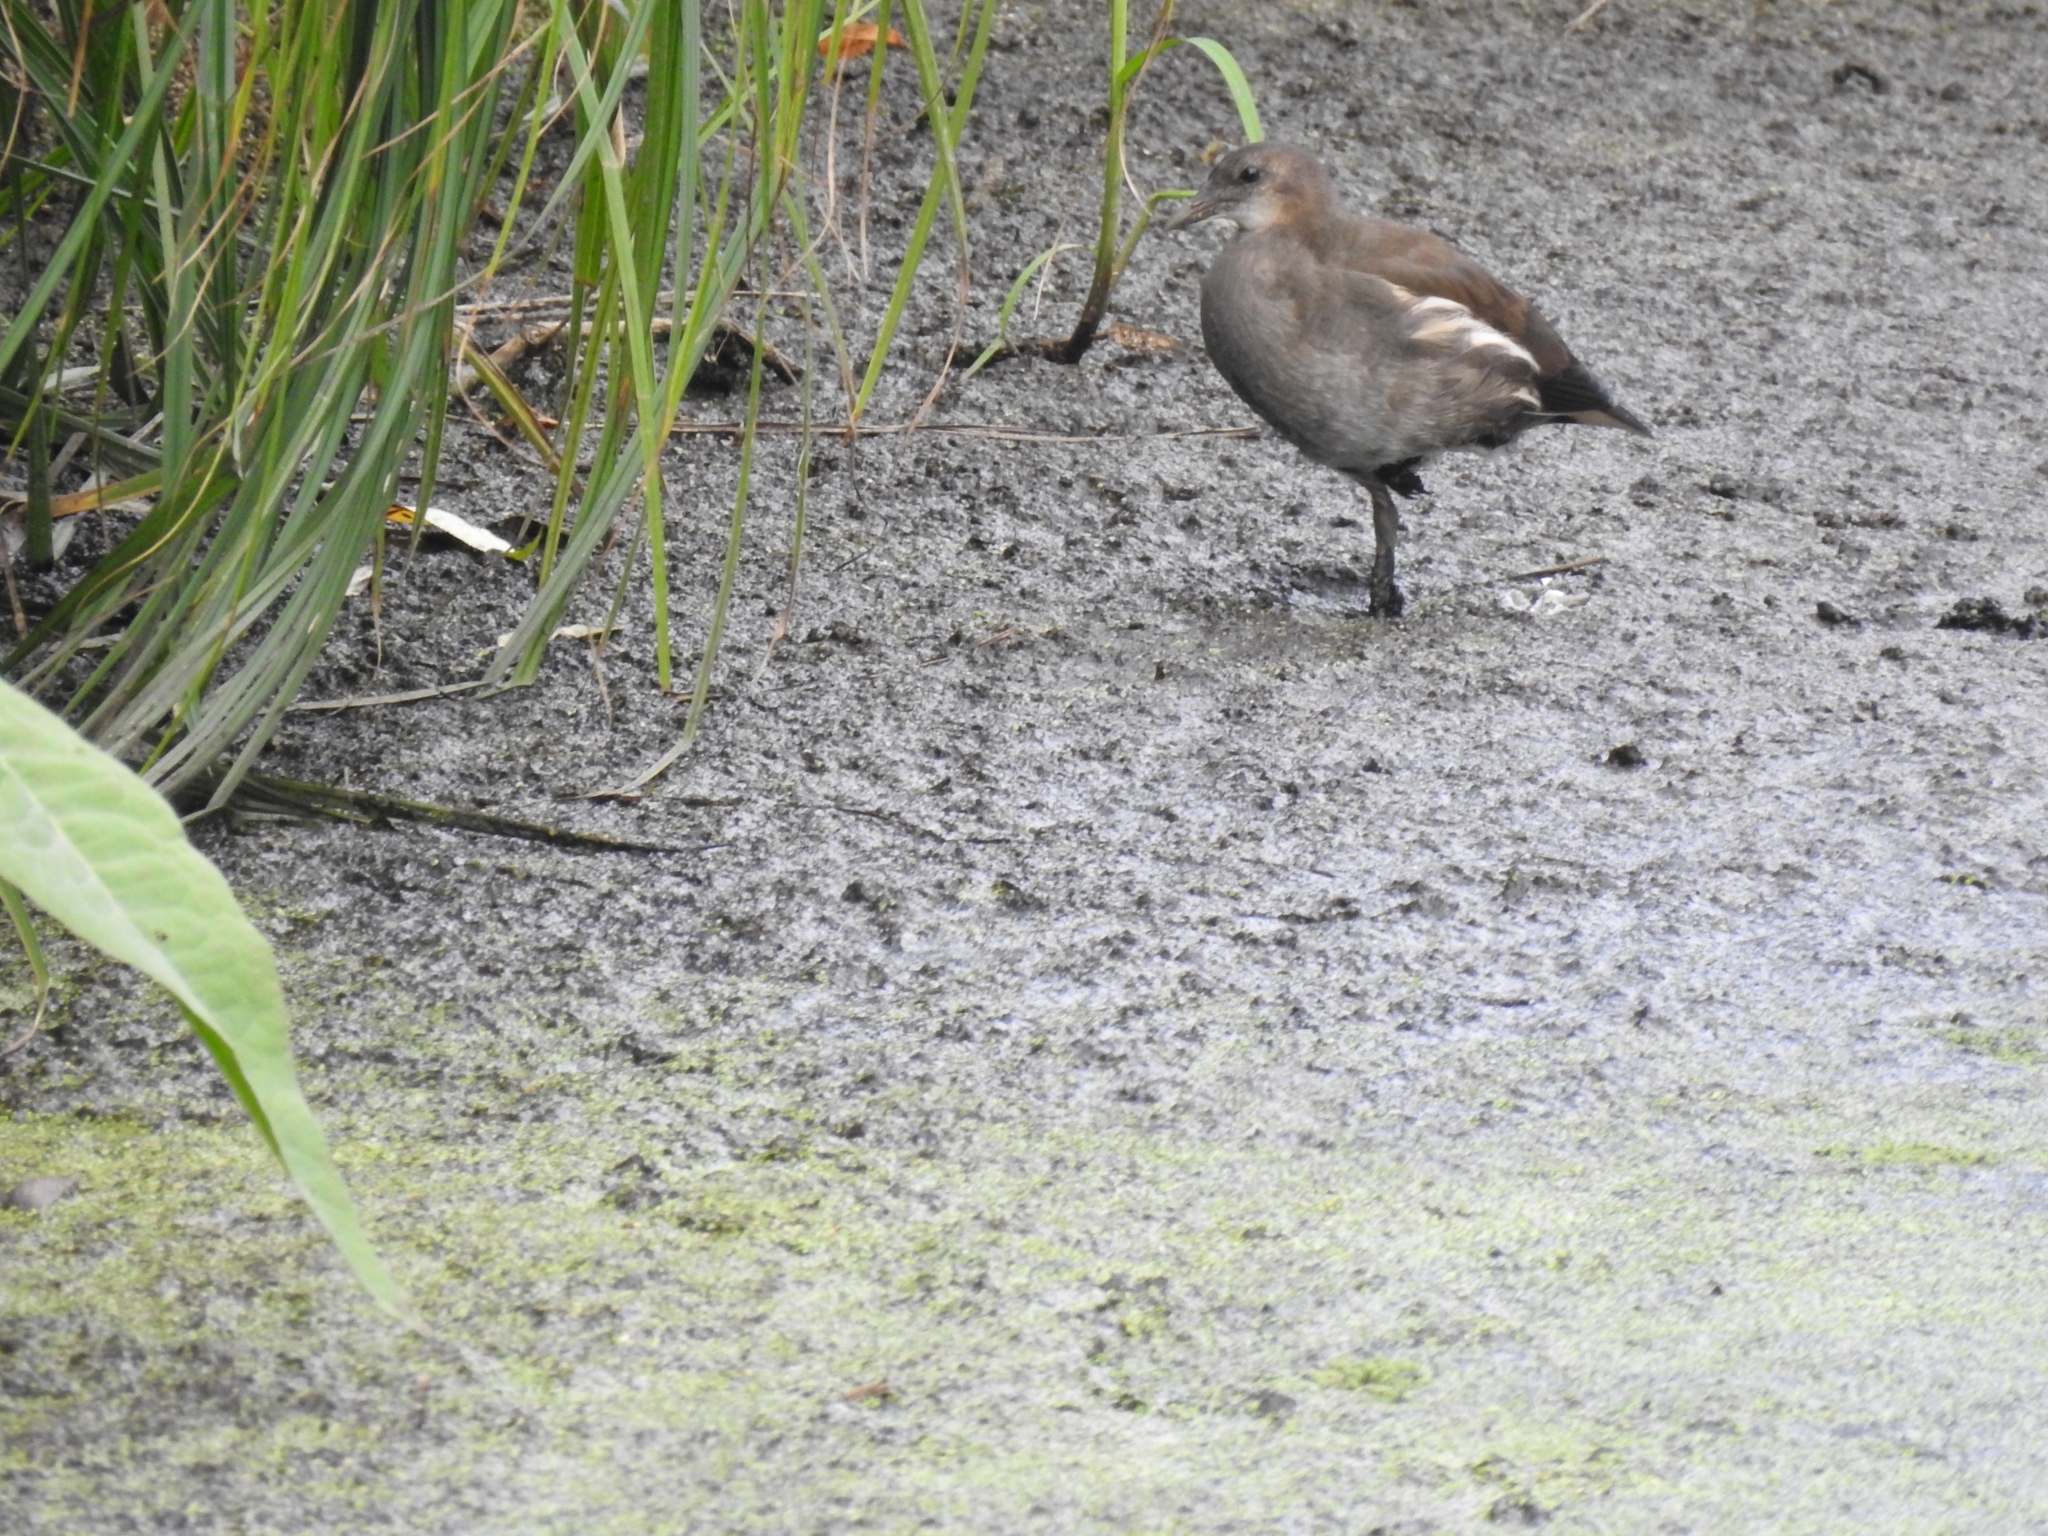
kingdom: Animalia
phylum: Chordata
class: Aves
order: Gruiformes
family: Rallidae
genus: Gallinula
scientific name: Gallinula chloropus
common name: Common moorhen
